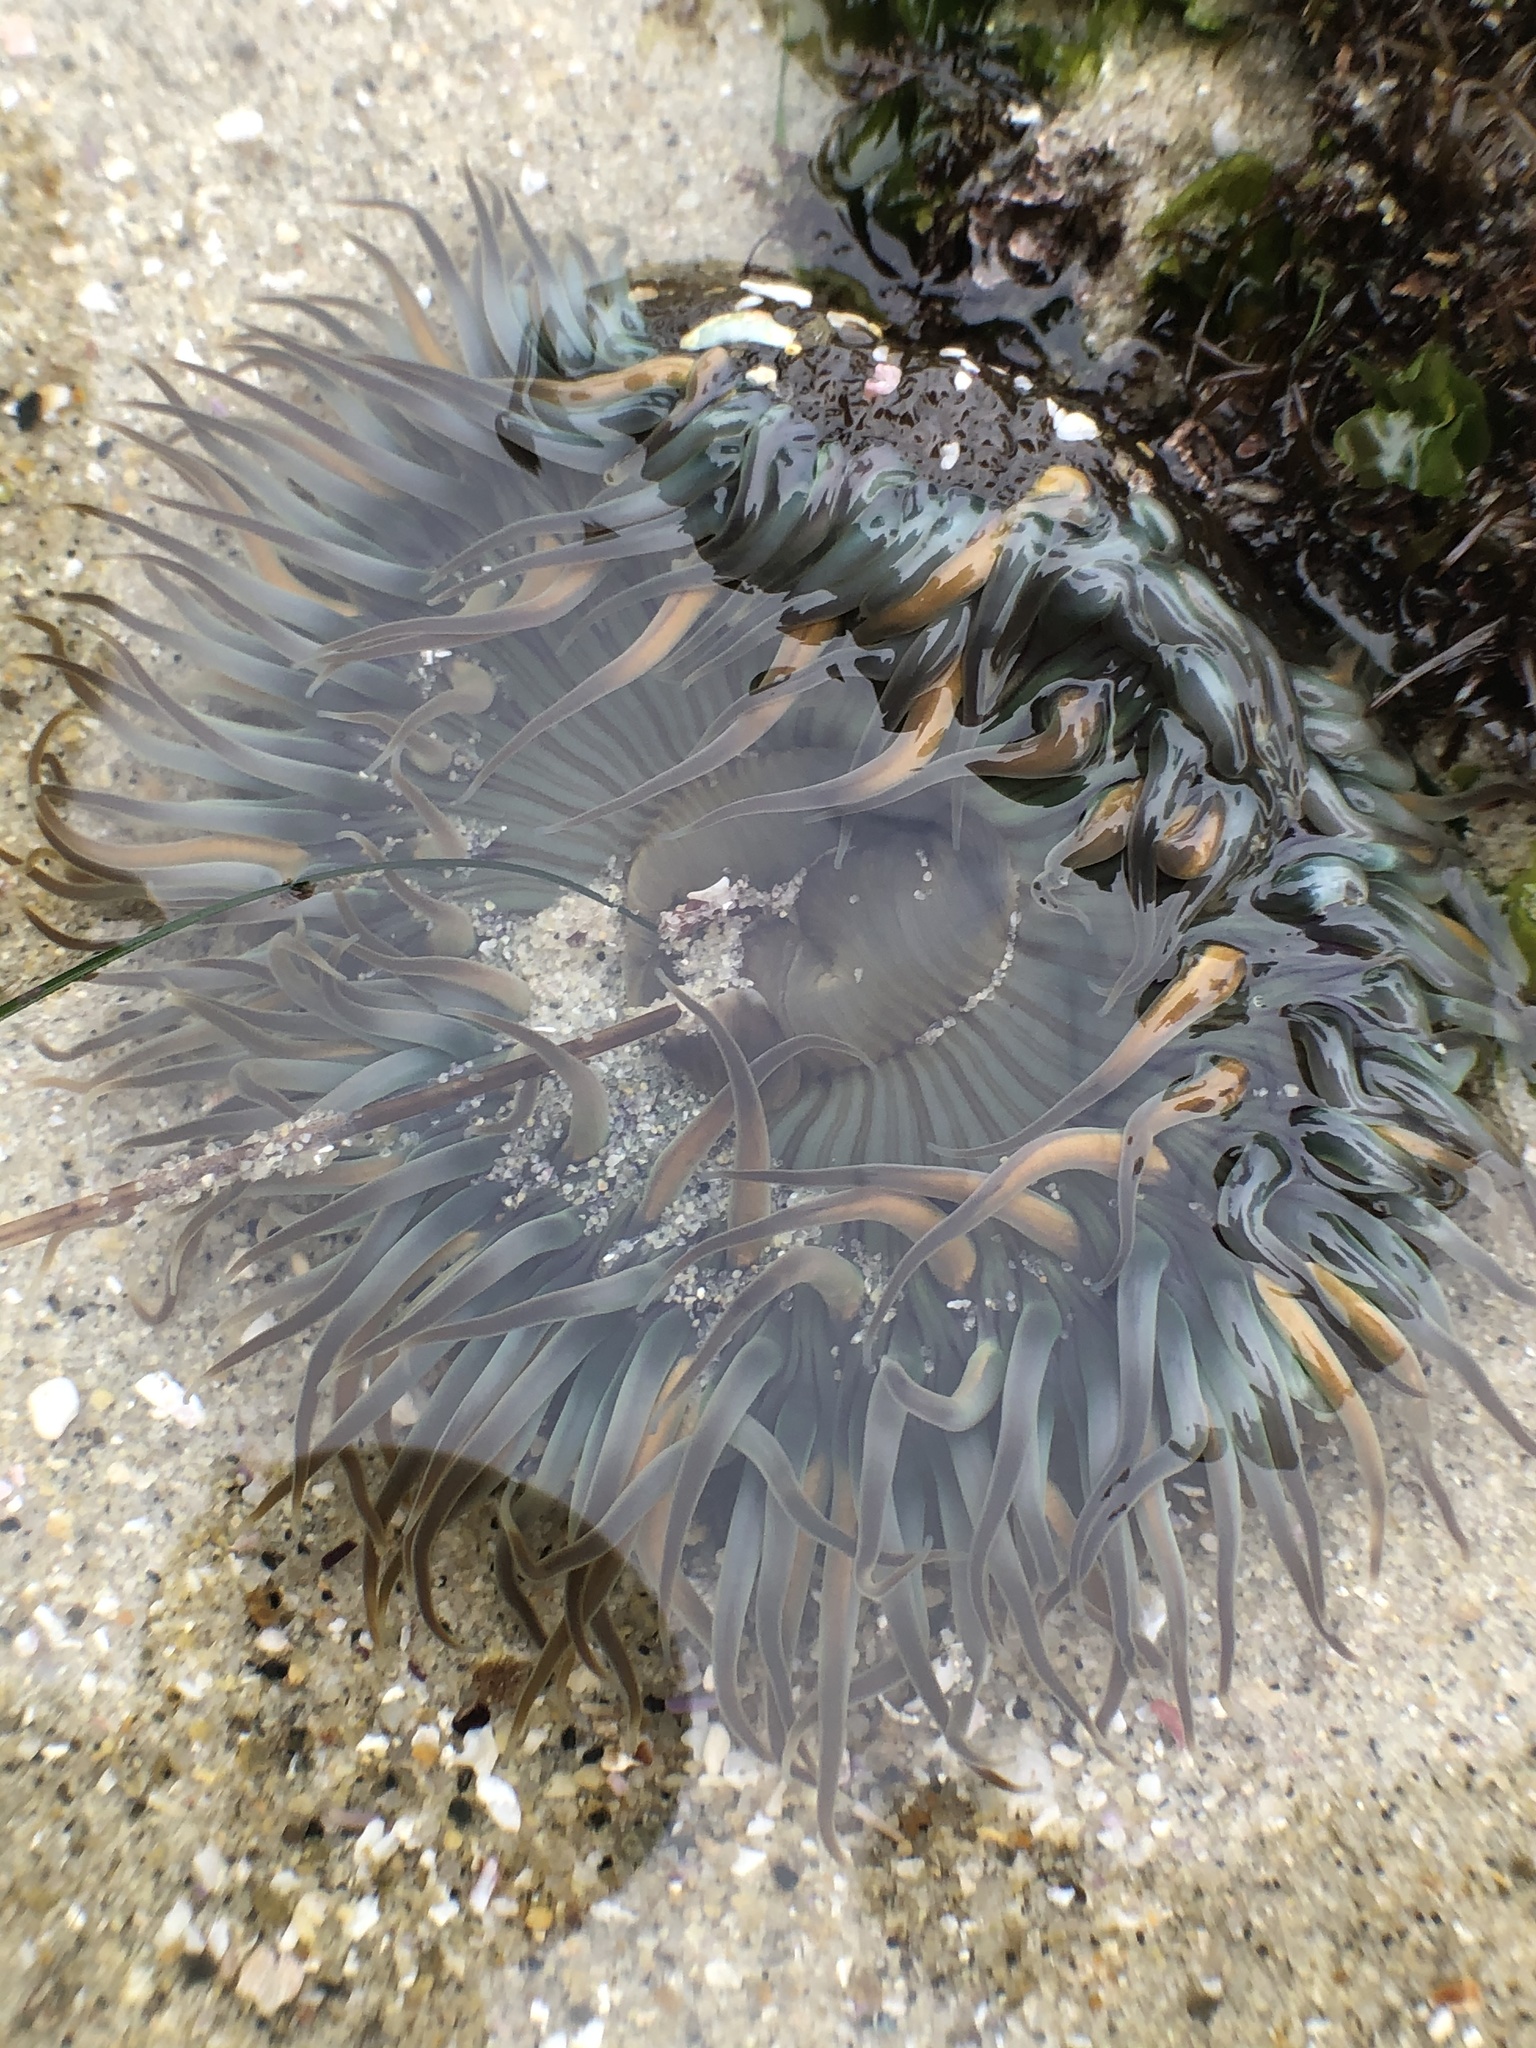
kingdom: Animalia
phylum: Cnidaria
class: Anthozoa
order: Actiniaria
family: Actiniidae
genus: Anthopleura
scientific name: Anthopleura sola
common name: Sun anemone
